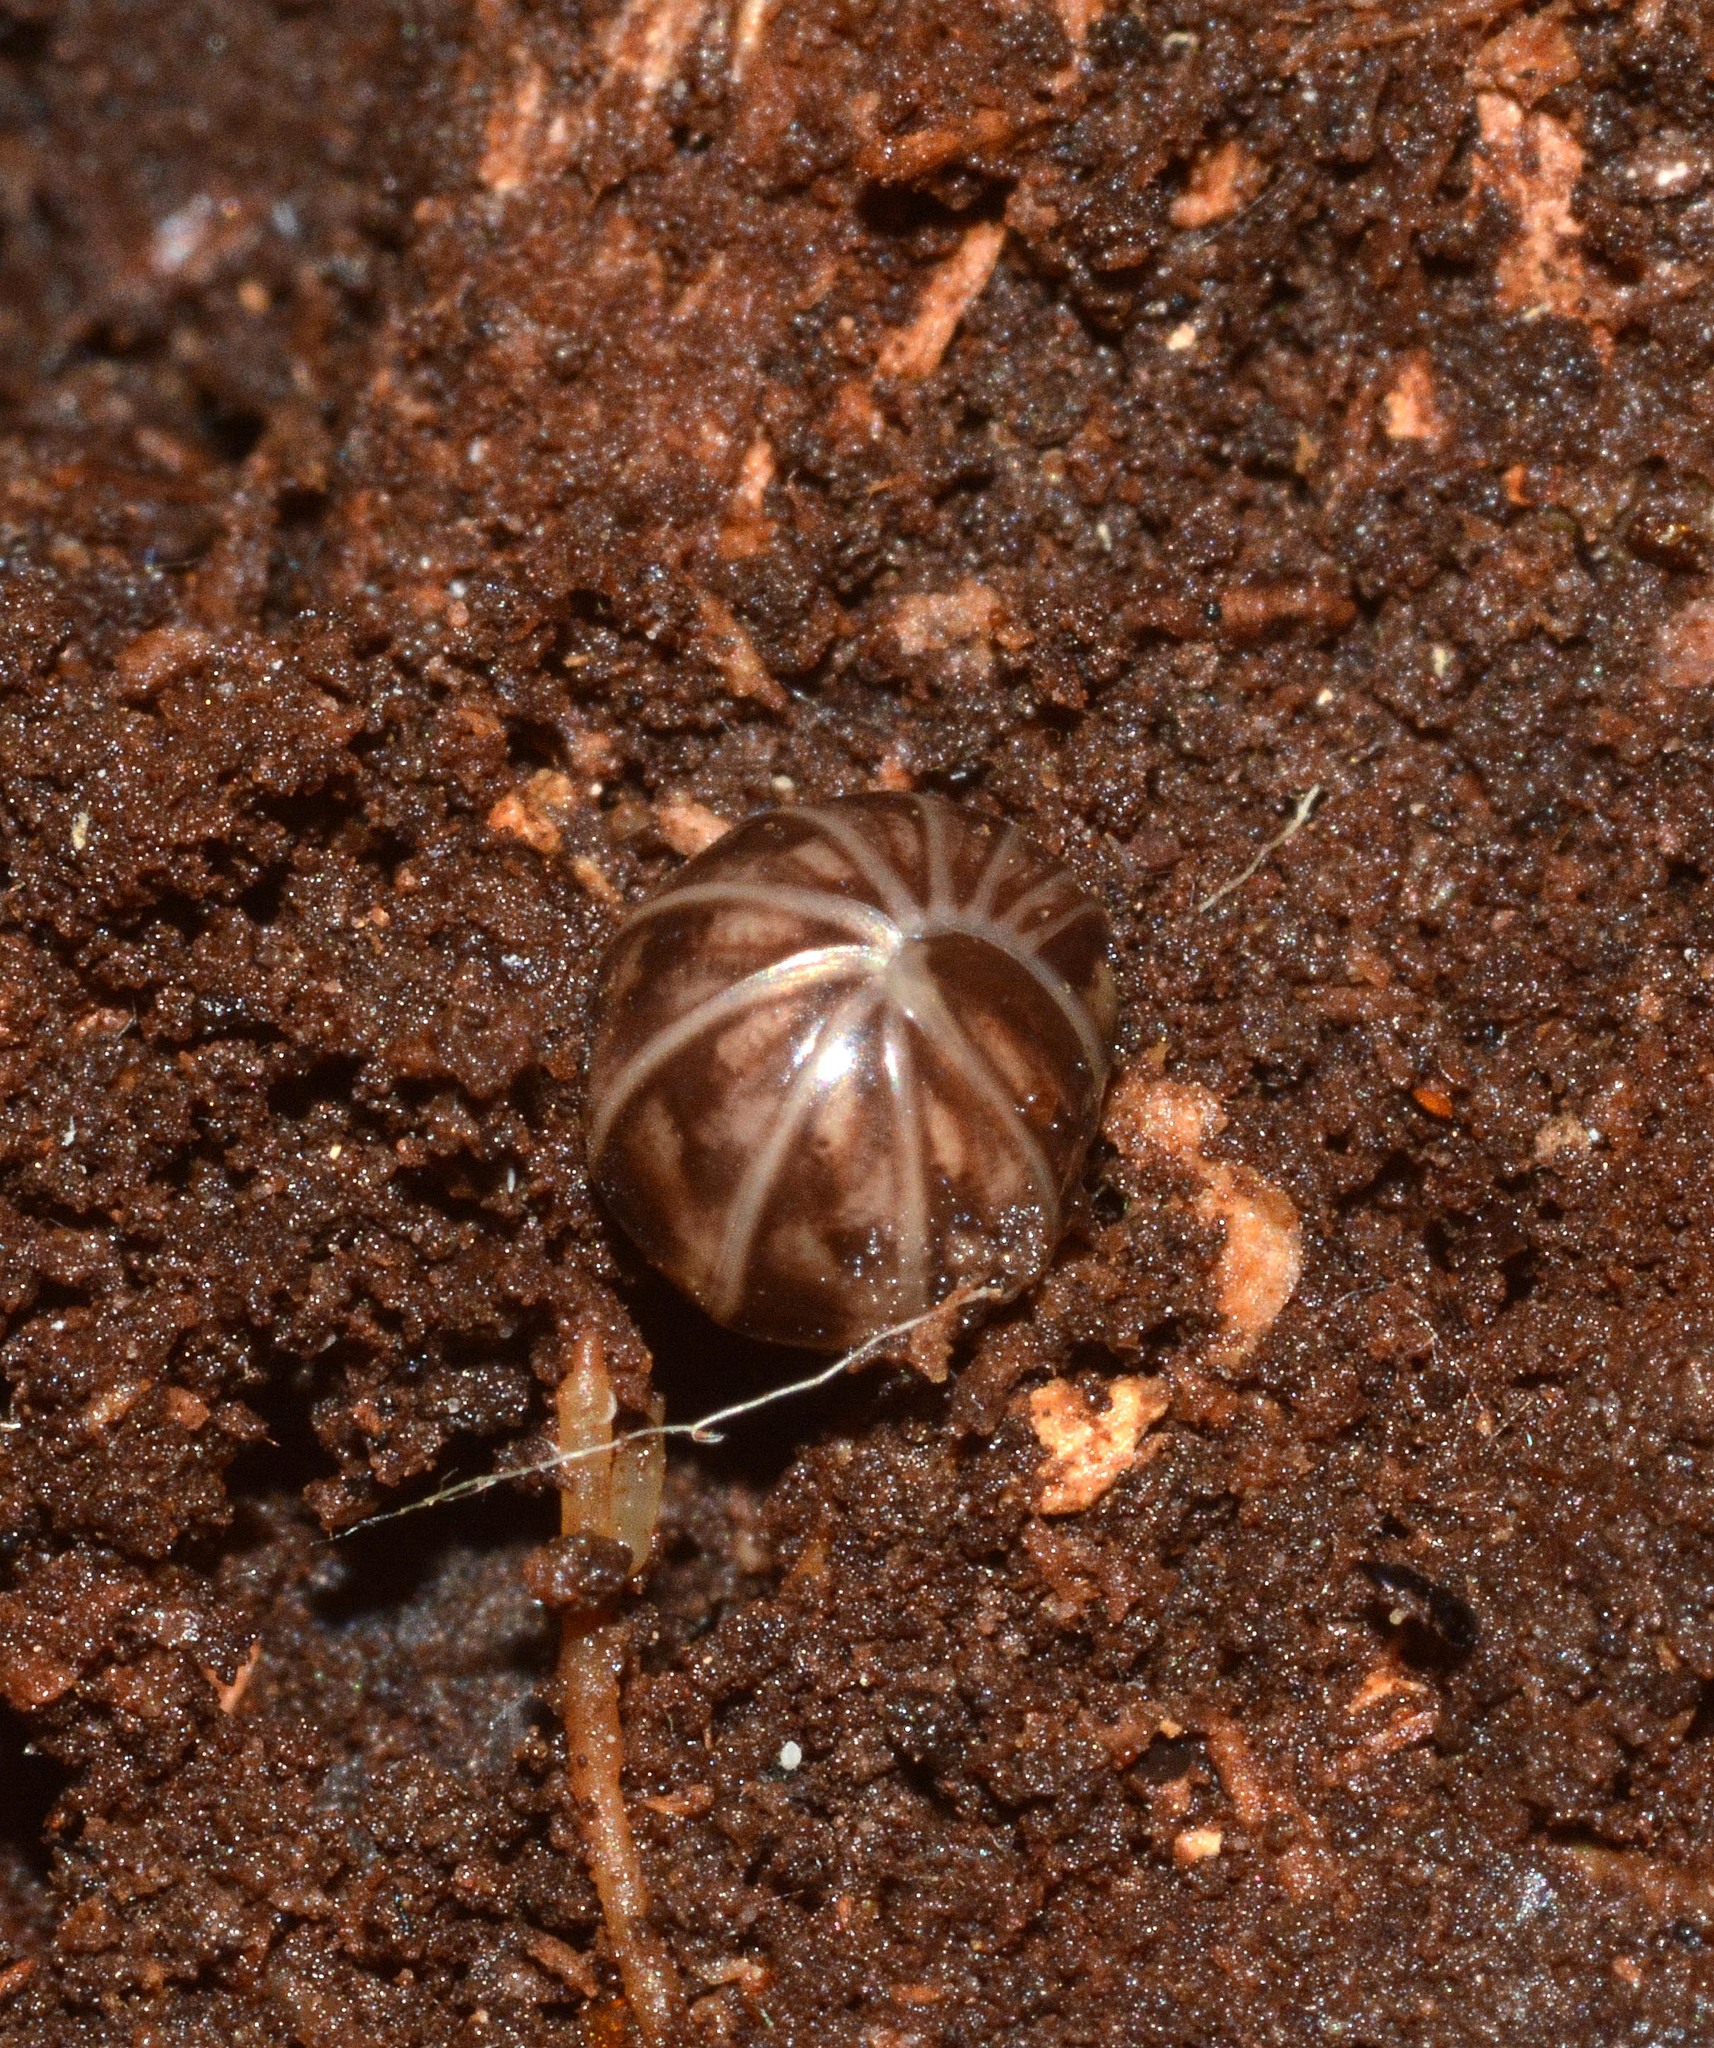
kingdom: Animalia
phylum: Arthropoda
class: Diplopoda
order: Glomerida
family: Glomeridae
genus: Glomeris
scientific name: Glomeris marginata
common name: Bordered pill millipede
